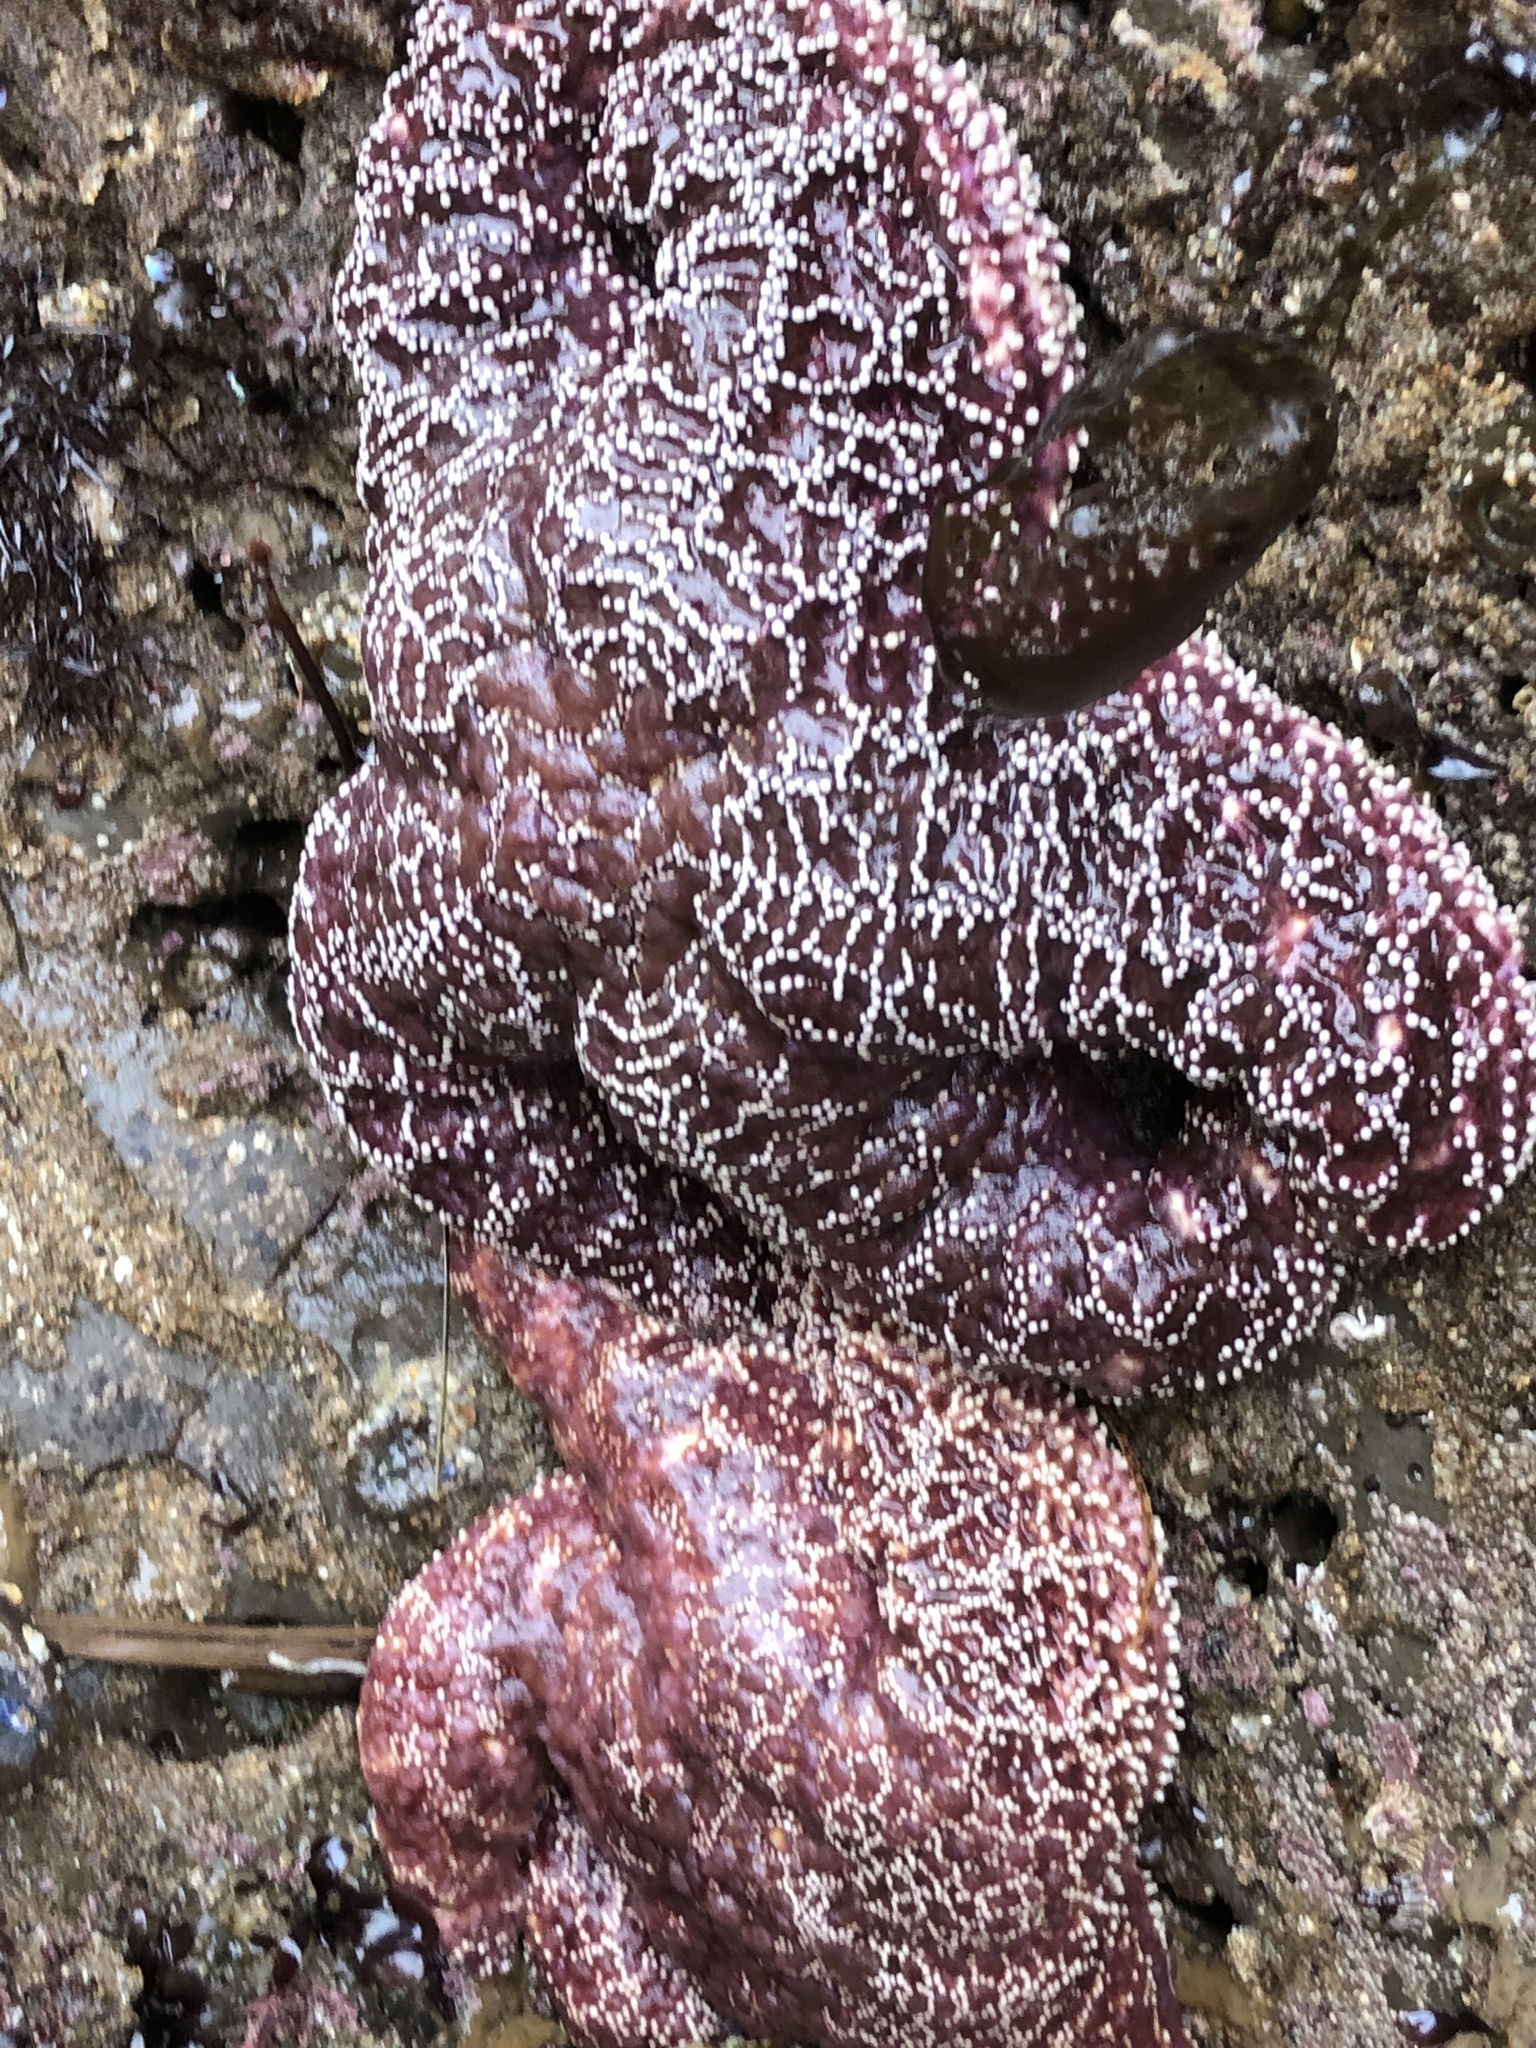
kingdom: Animalia
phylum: Echinodermata
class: Asteroidea
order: Forcipulatida
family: Asteriidae
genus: Pisaster
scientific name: Pisaster ochraceus
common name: Ochre stars
